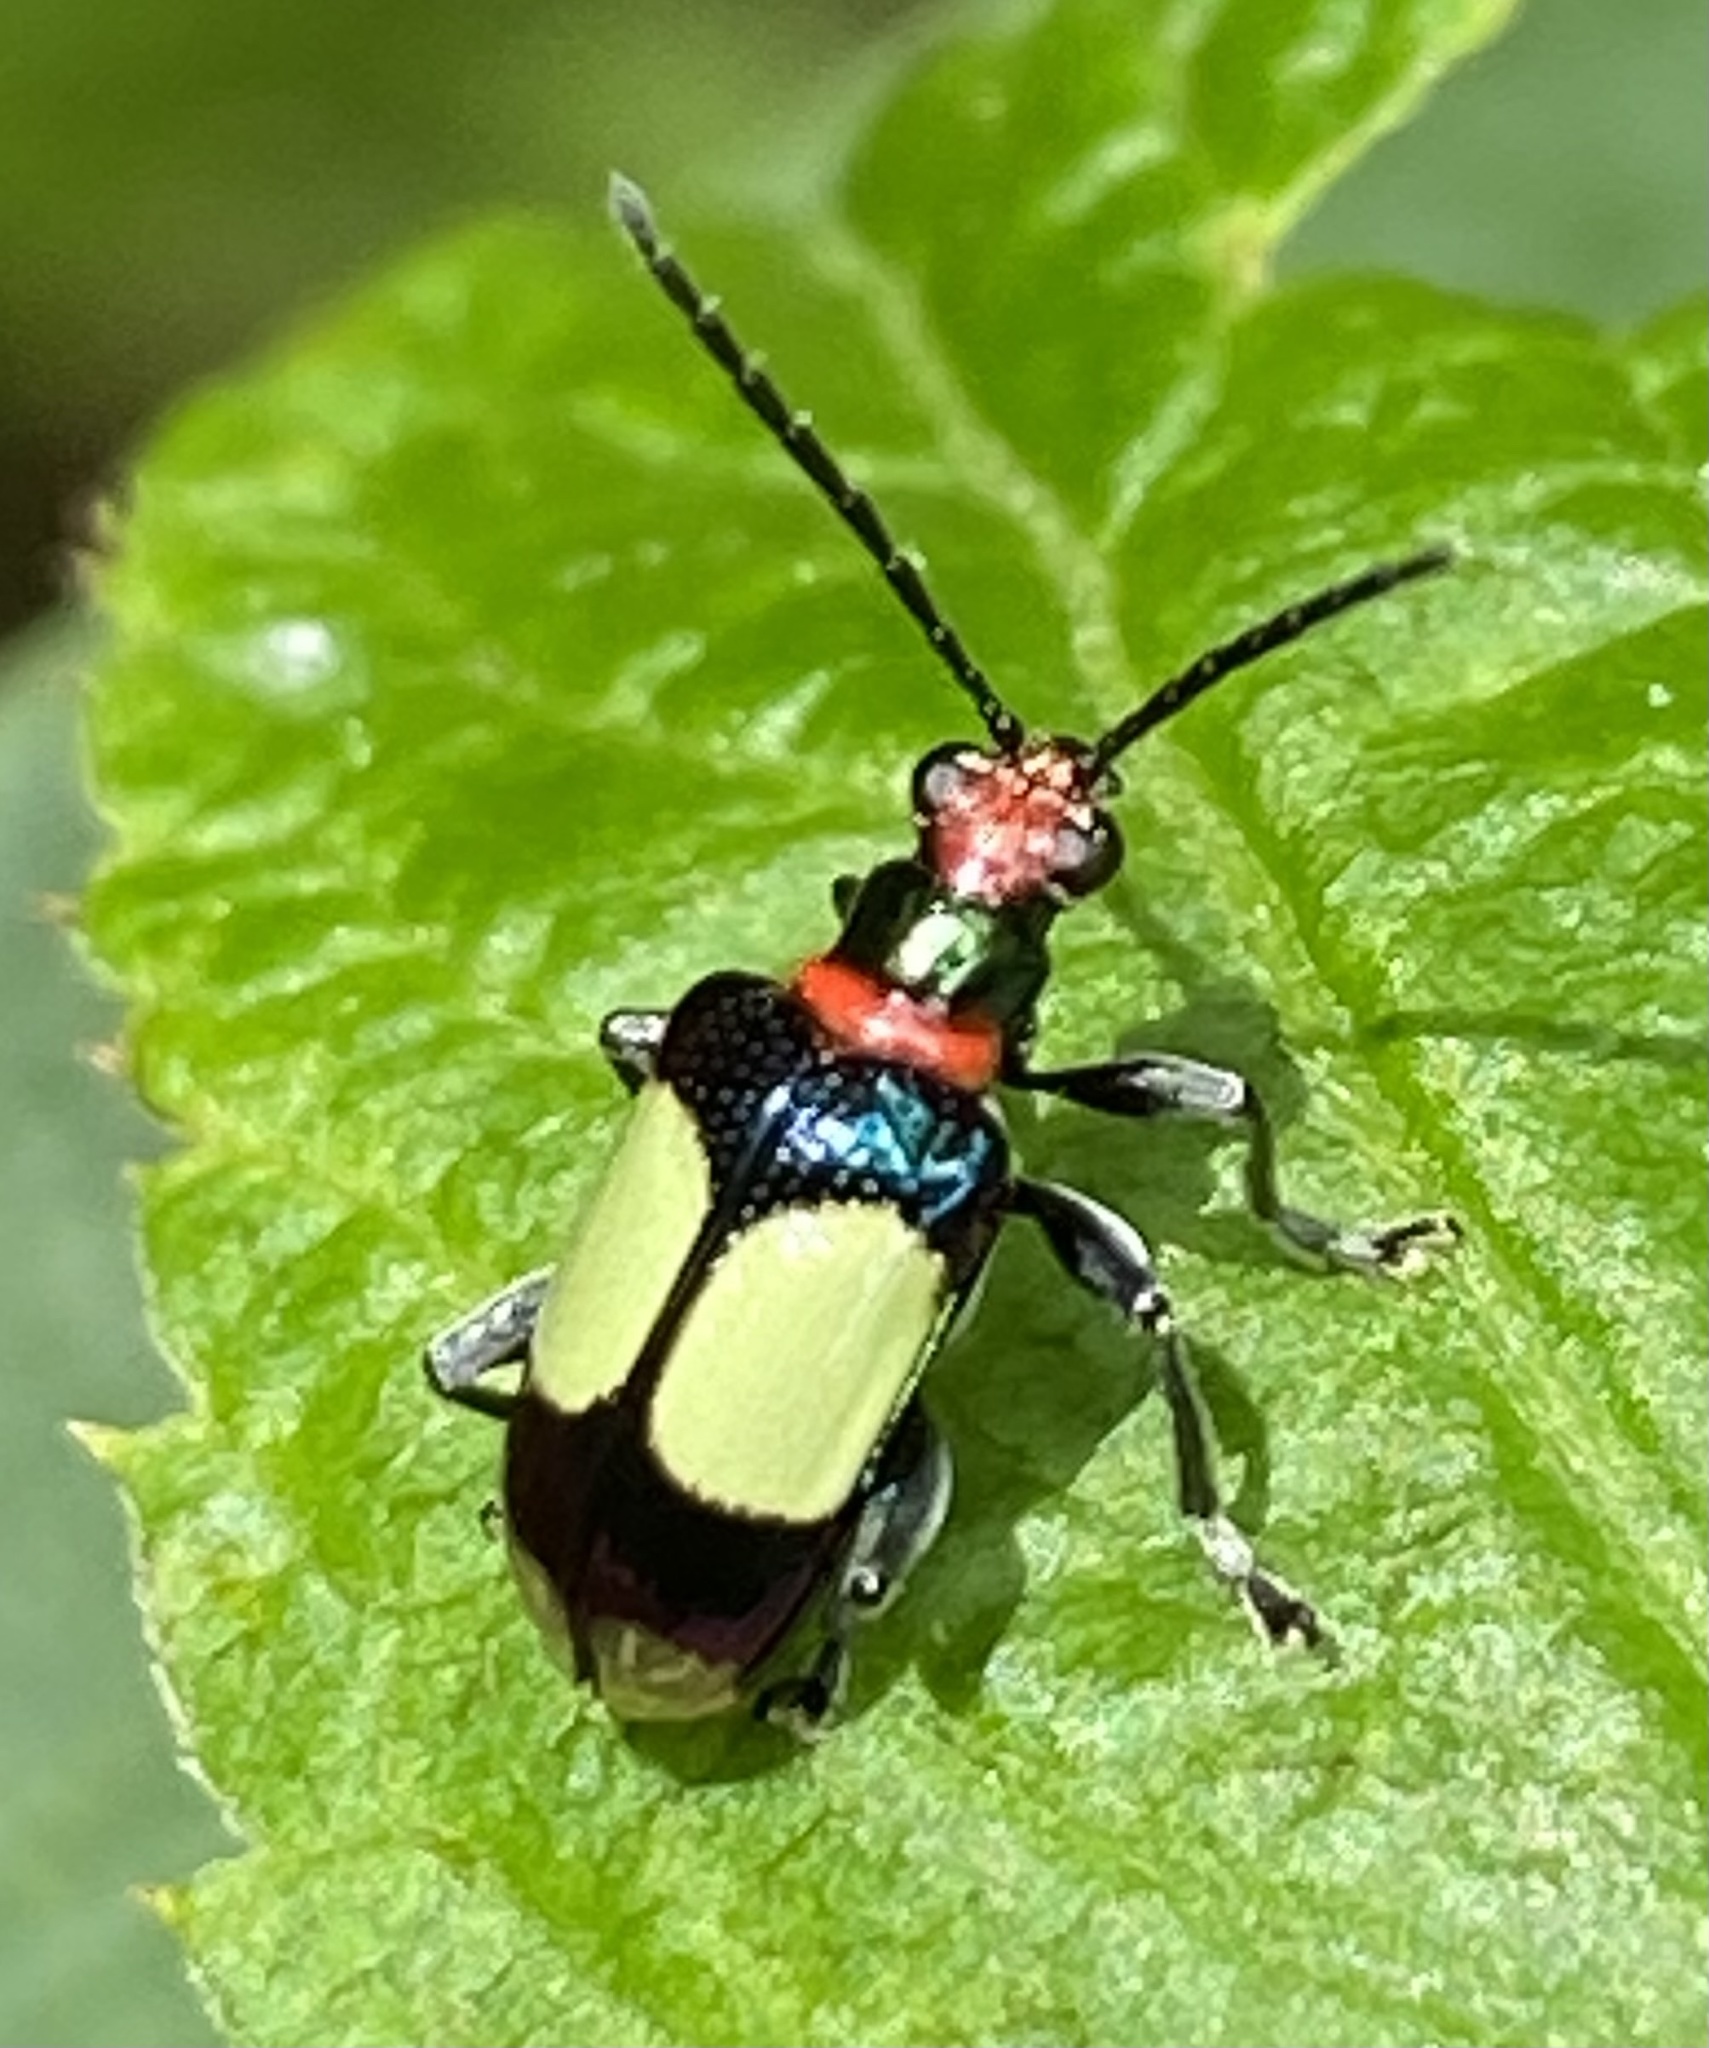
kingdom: Animalia
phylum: Arthropoda
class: Insecta
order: Coleoptera
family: Chrysomelidae
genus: Neolema
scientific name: Neolema
